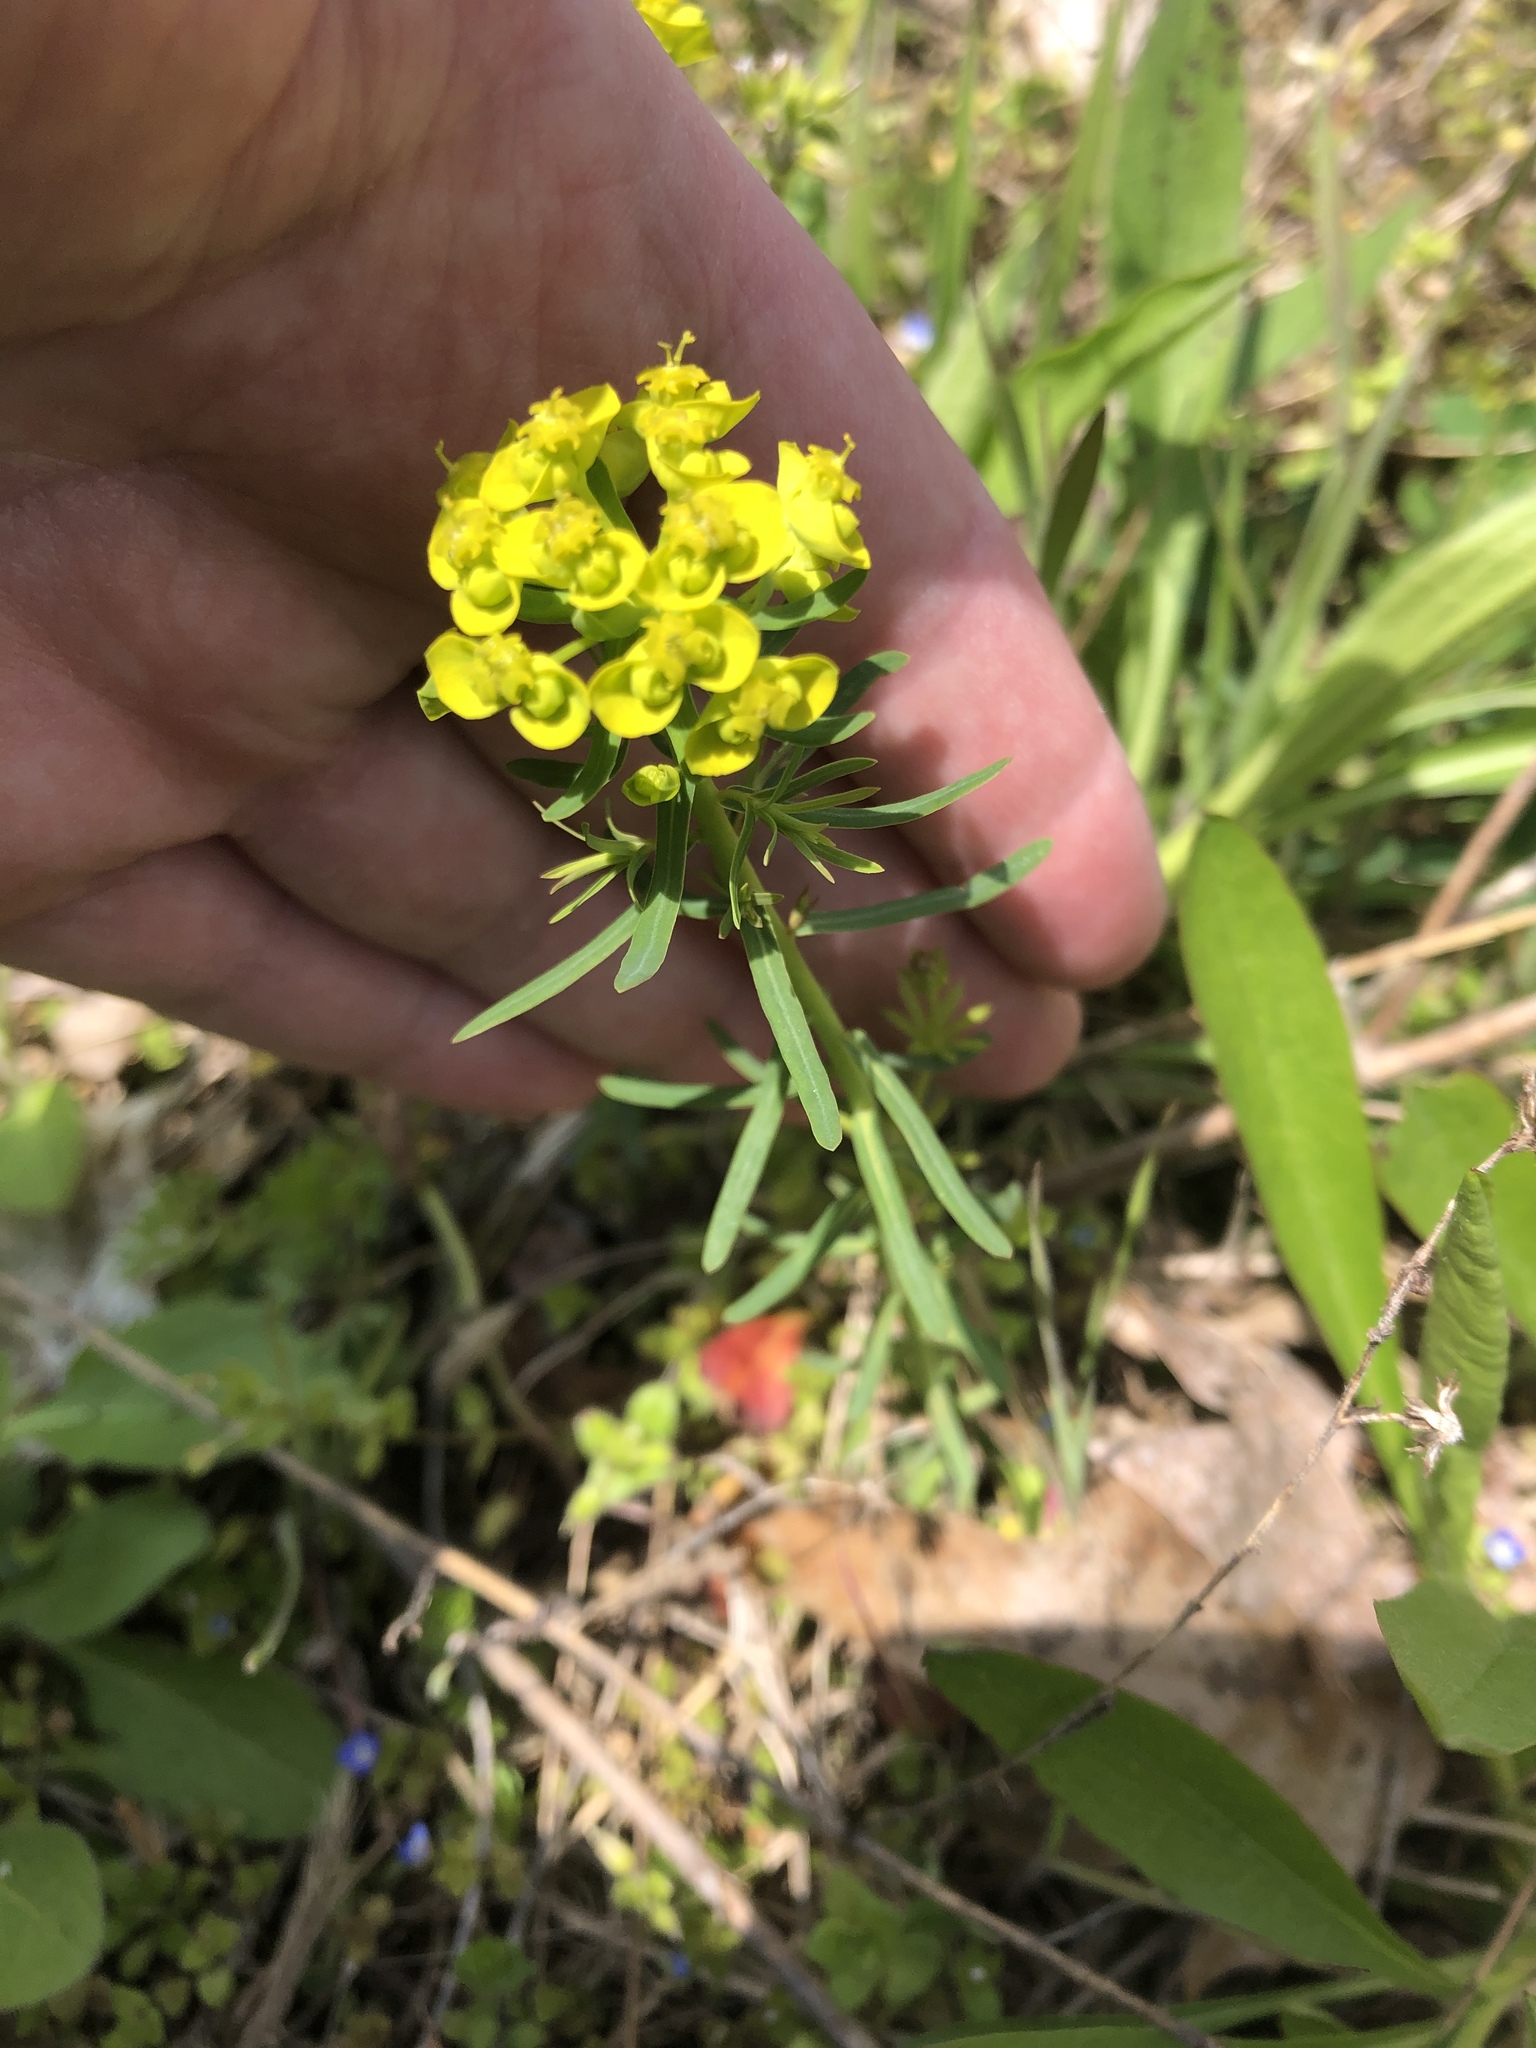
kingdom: Plantae
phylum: Tracheophyta
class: Magnoliopsida
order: Malpighiales
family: Euphorbiaceae
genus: Euphorbia
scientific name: Euphorbia cyparissias
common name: Cypress spurge
